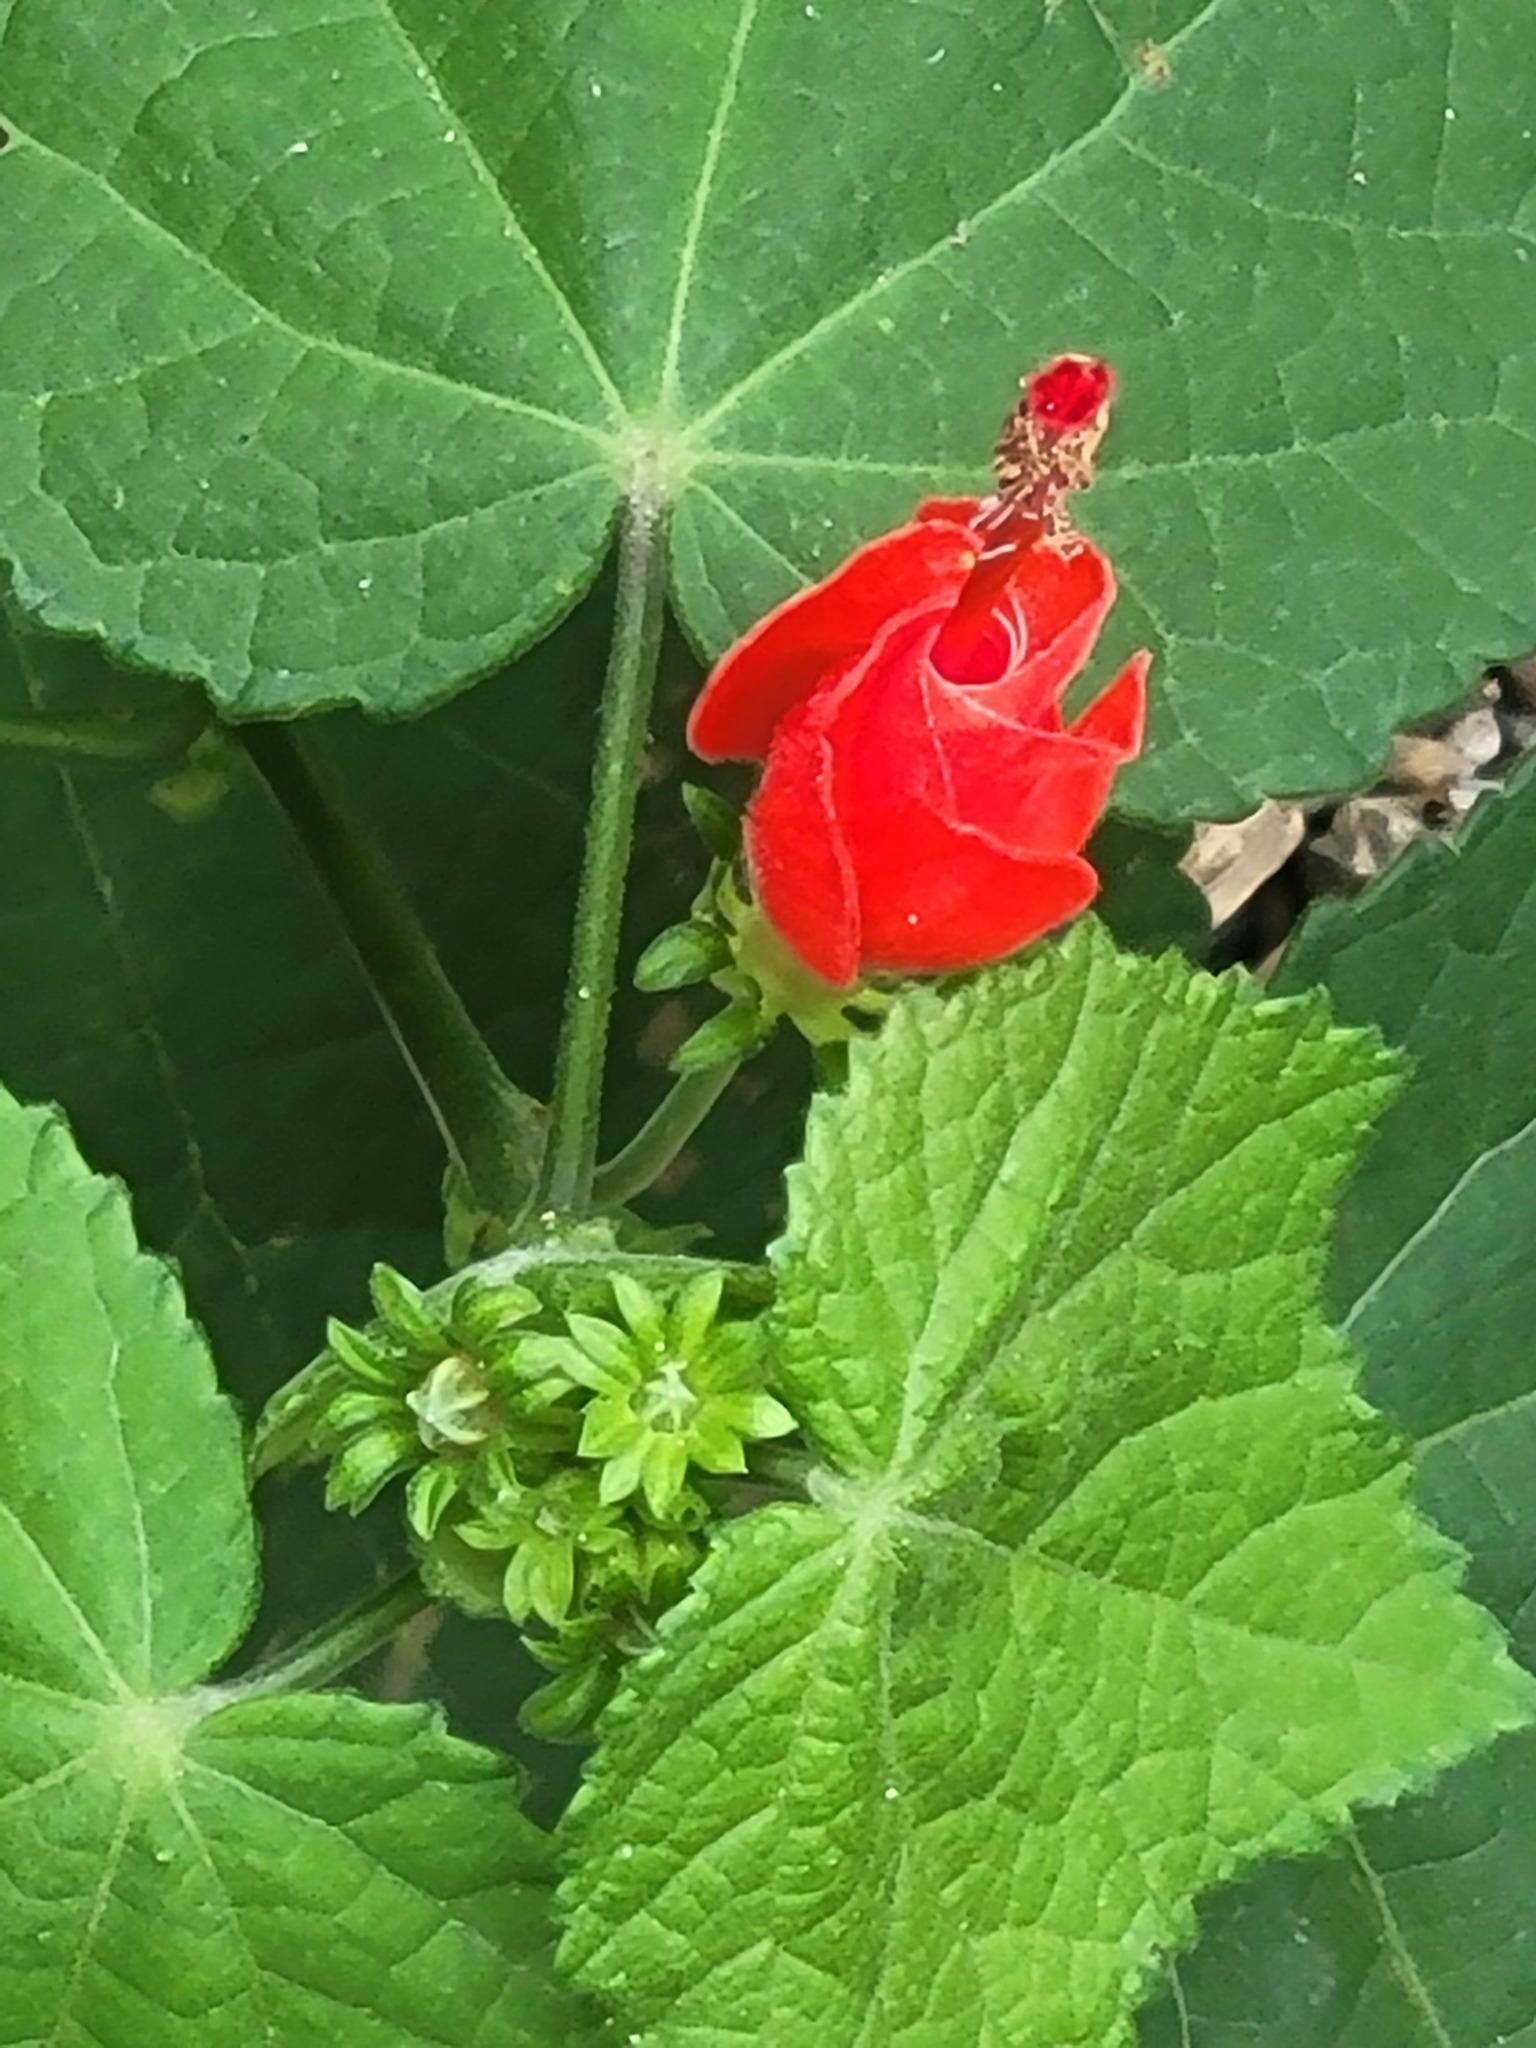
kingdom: Plantae
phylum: Tracheophyta
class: Magnoliopsida
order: Malvales
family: Malvaceae
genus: Malvaviscus
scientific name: Malvaviscus arboreus
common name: Wax mallow
